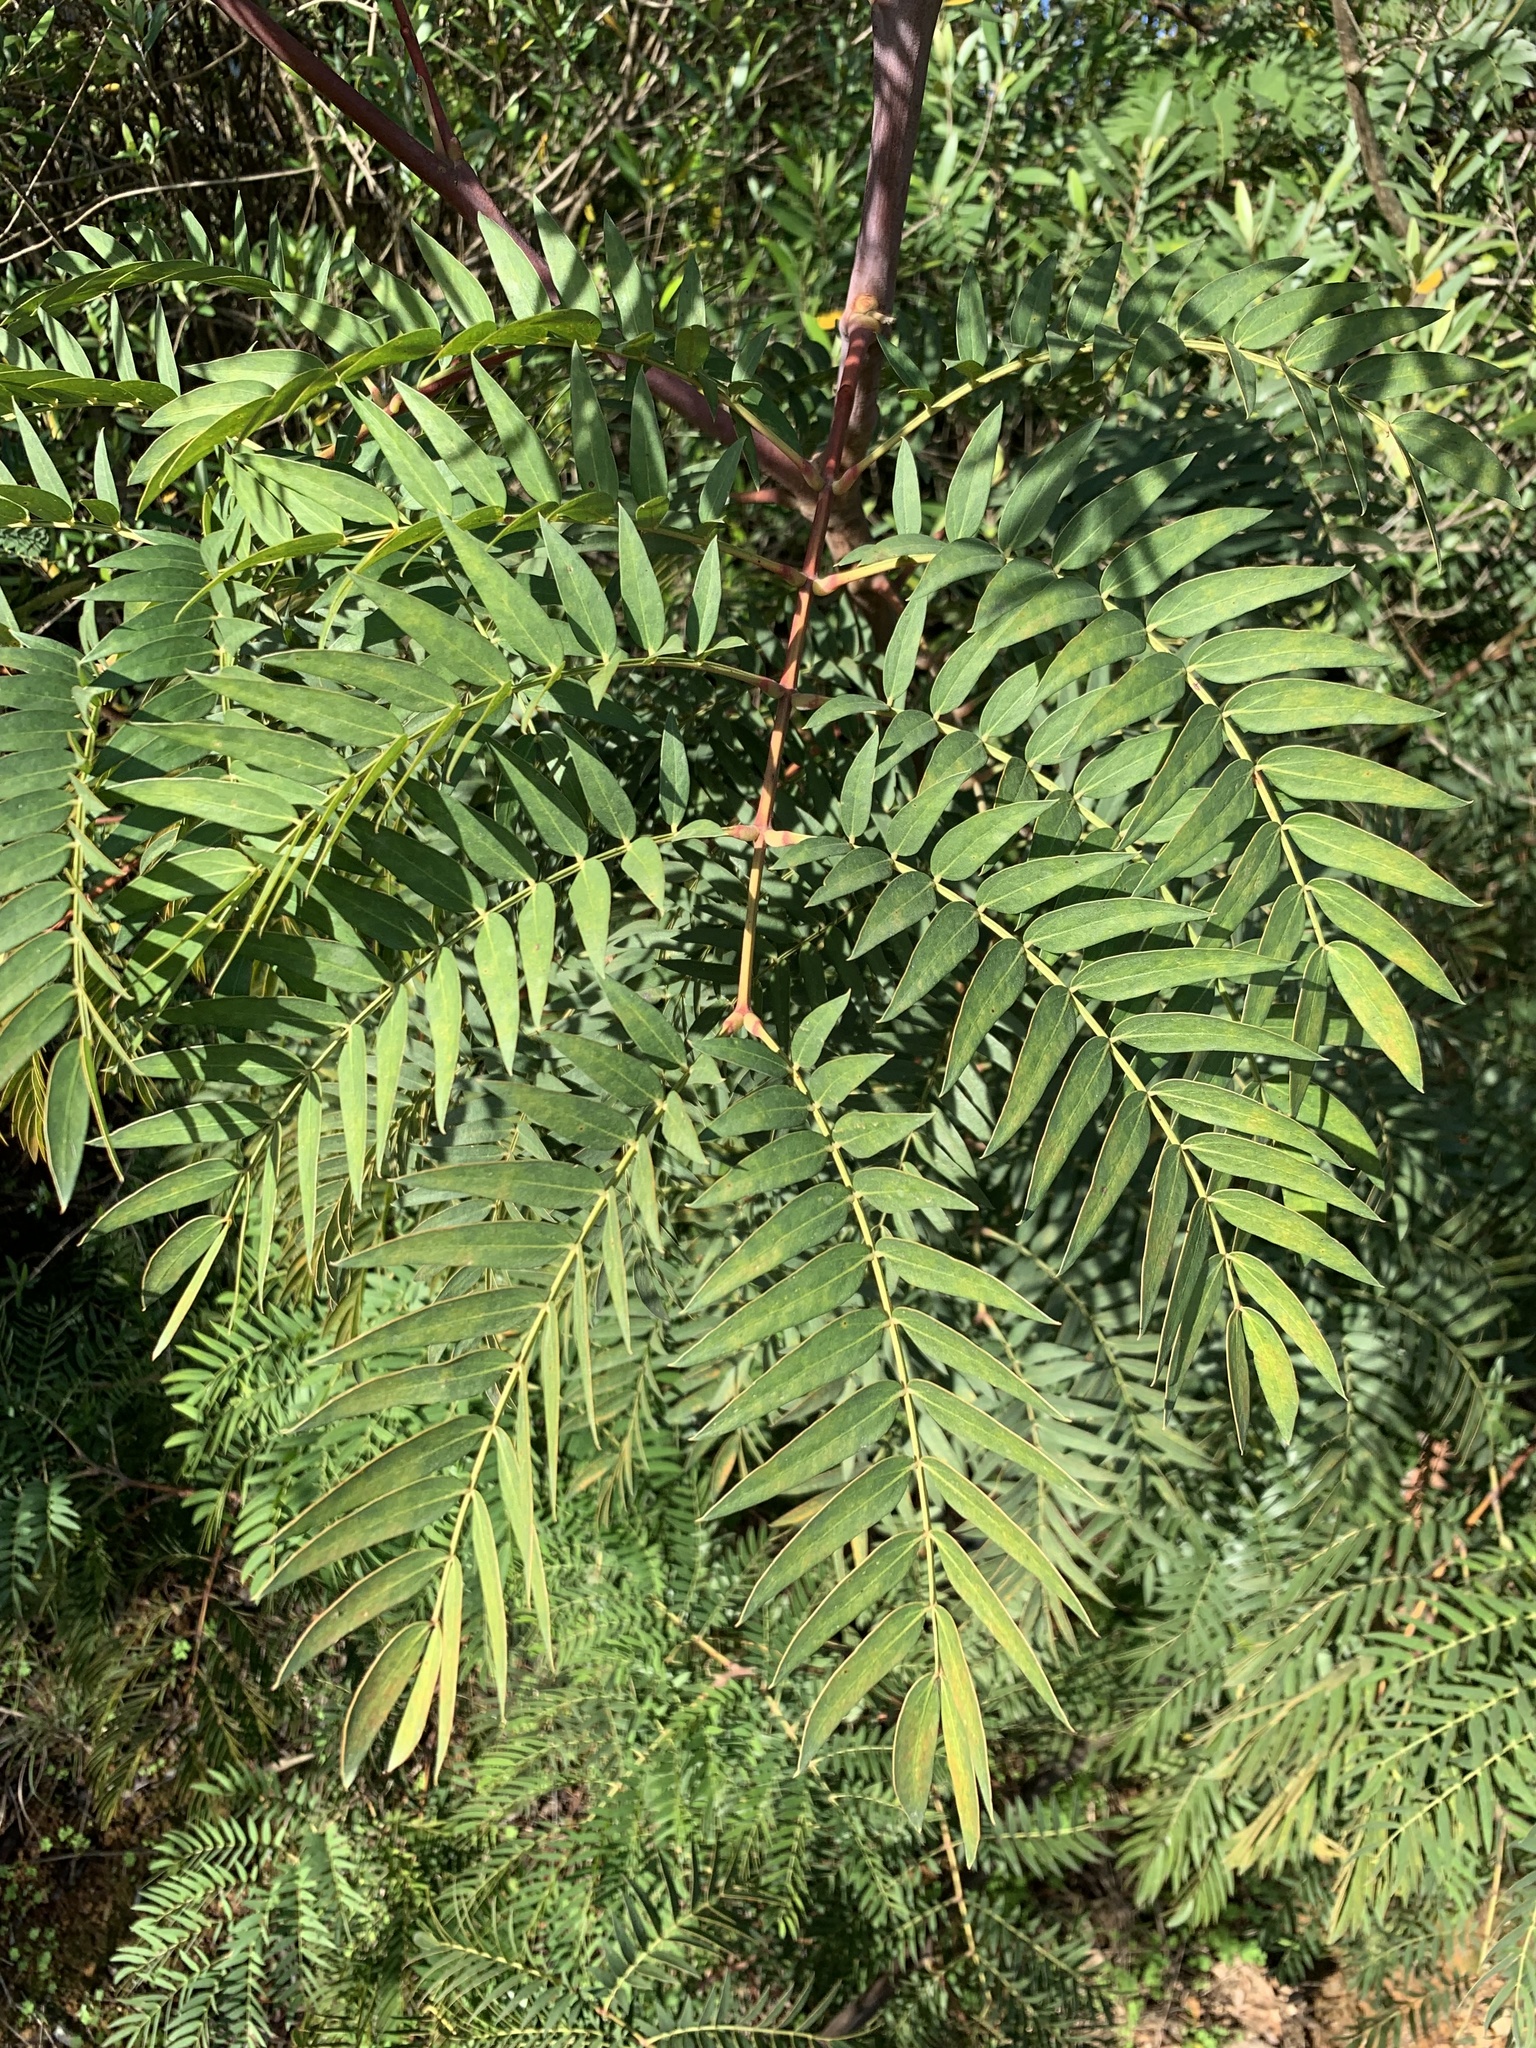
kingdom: Plantae
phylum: Tracheophyta
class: Magnoliopsida
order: Fabales
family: Fabaceae
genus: Acacia
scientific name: Acacia elata
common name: Cedar wattle
